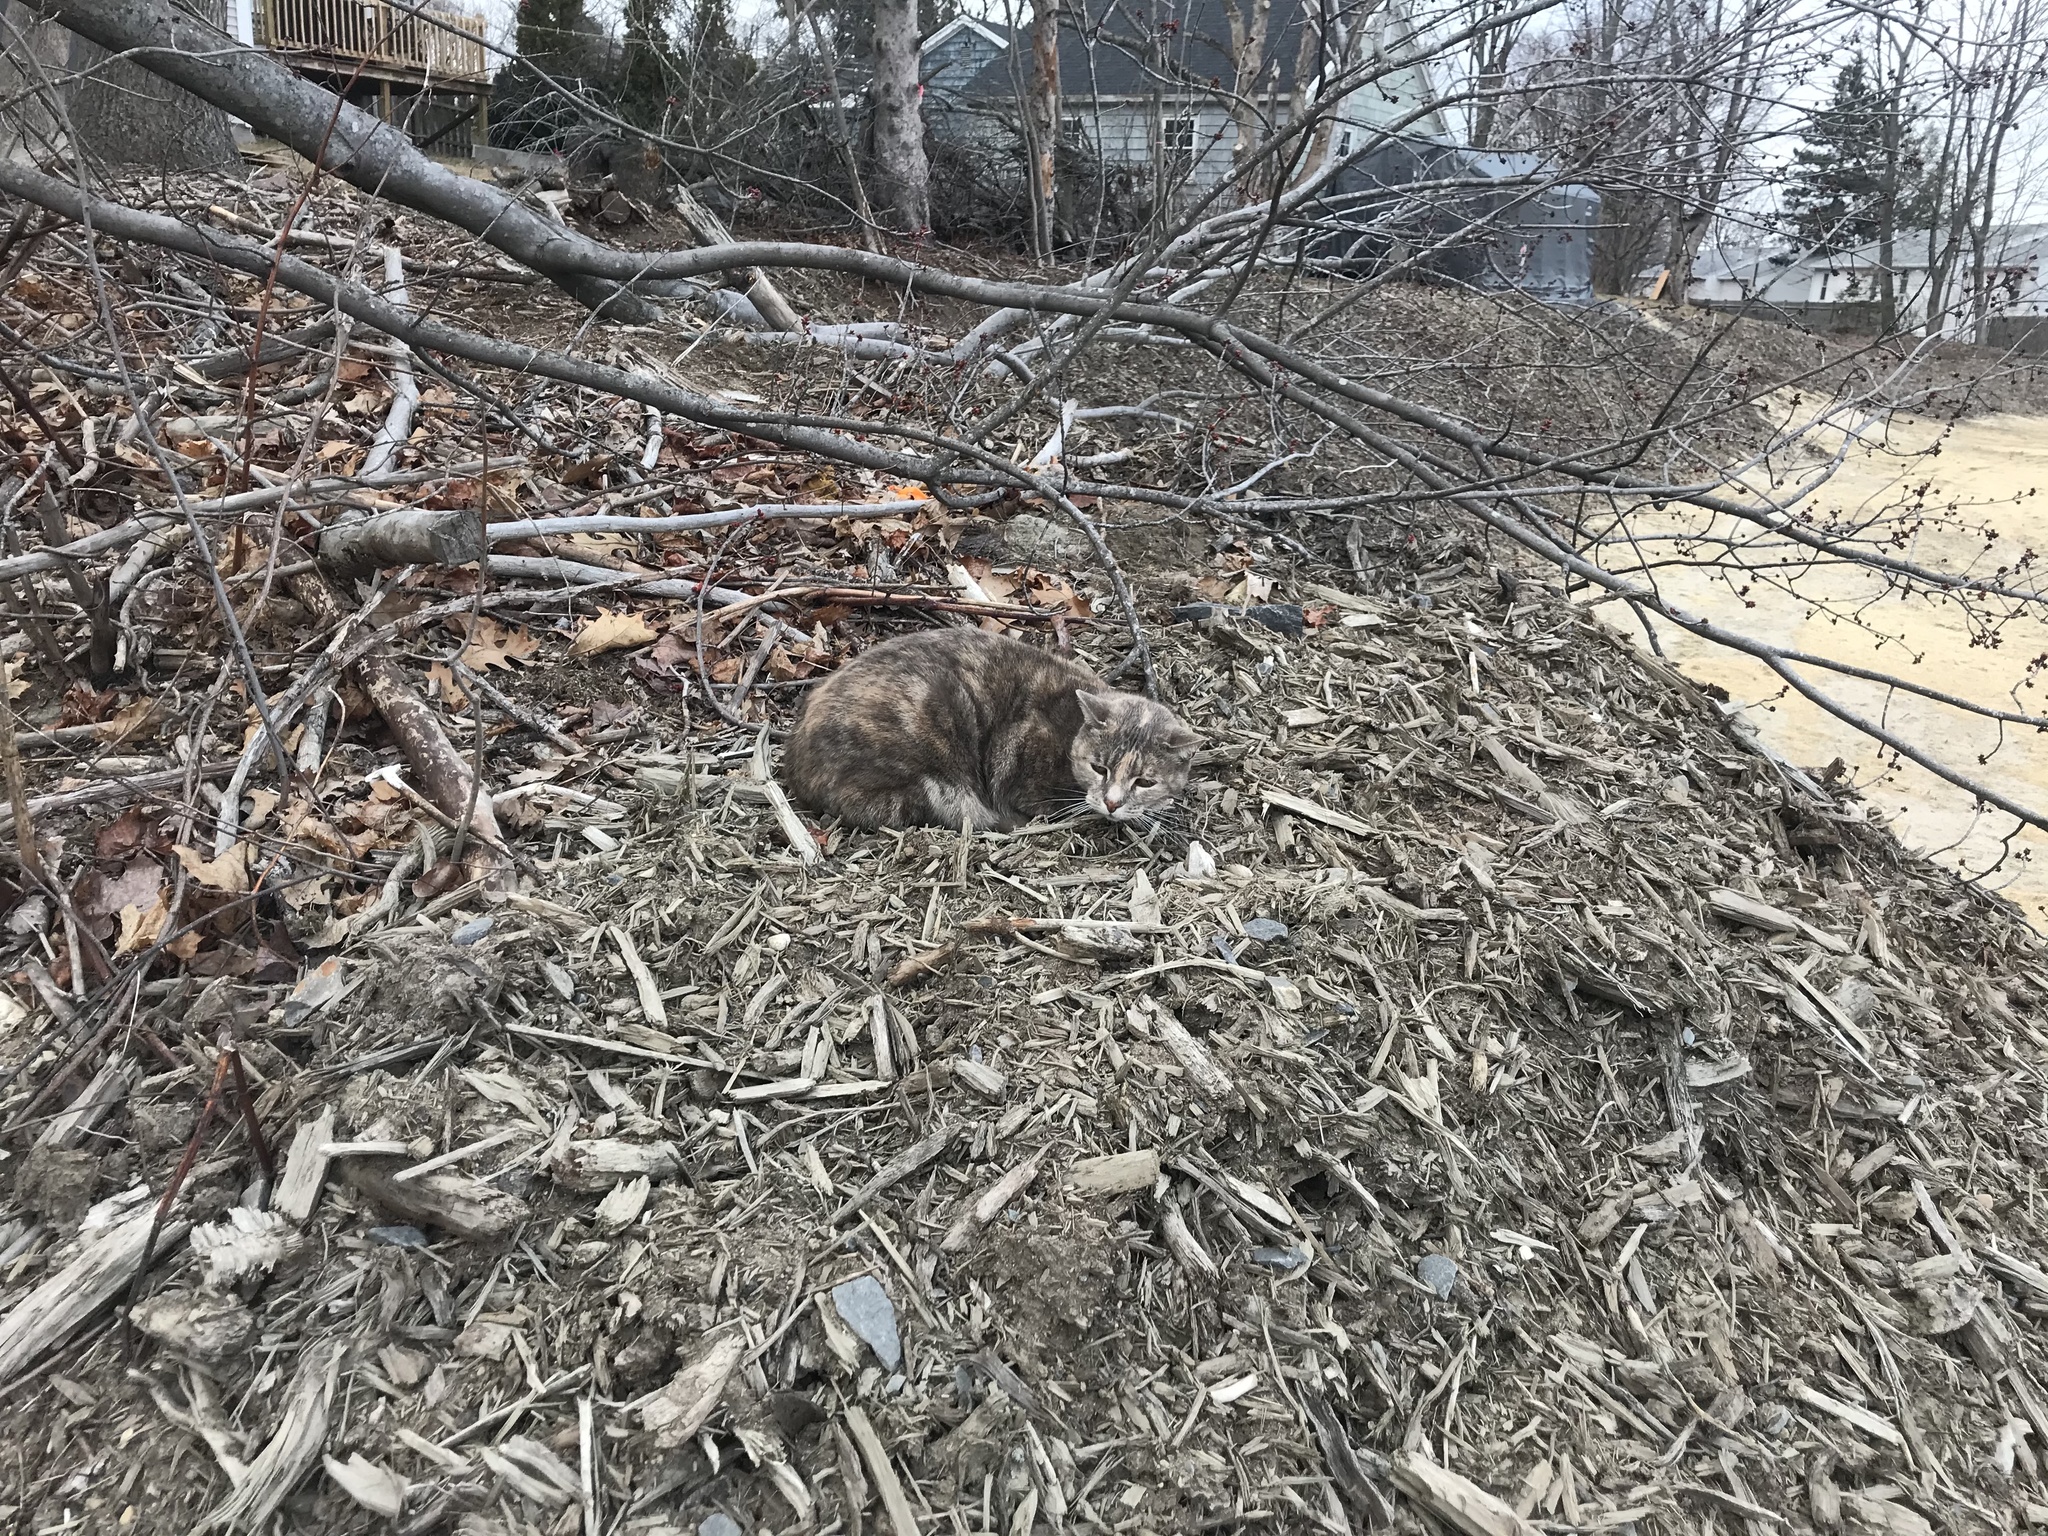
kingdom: Animalia
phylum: Chordata
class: Mammalia
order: Carnivora
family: Felidae
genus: Felis
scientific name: Felis catus
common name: Domestic cat
